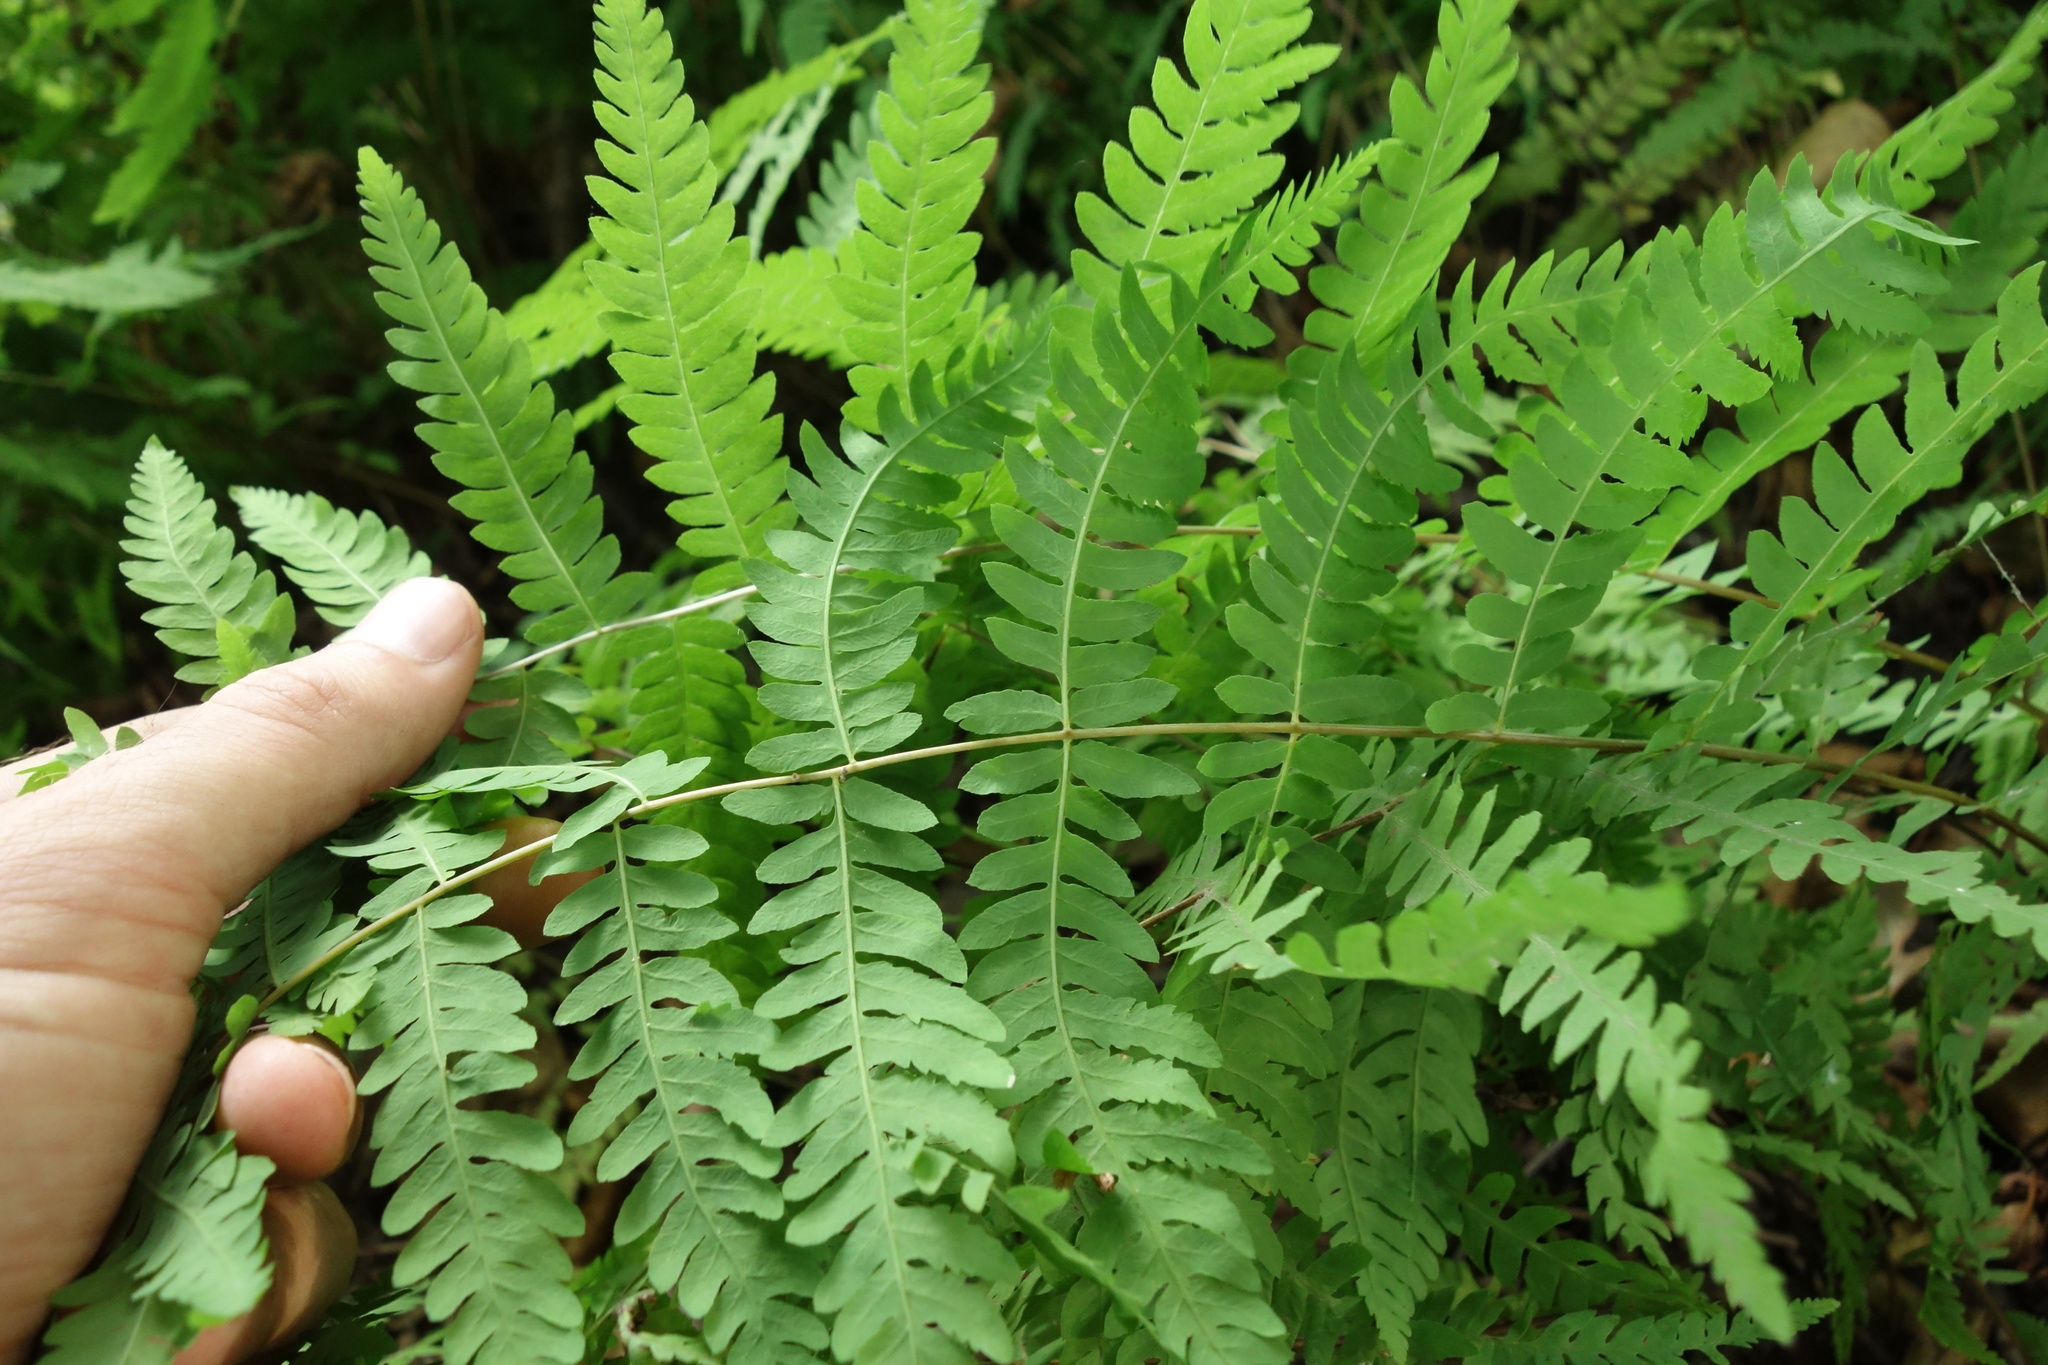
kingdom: Plantae
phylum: Tracheophyta
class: Polypodiopsida
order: Polypodiales
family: Thelypteridaceae
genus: Thelypteris
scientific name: Thelypteris palustris
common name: Marsh fern
